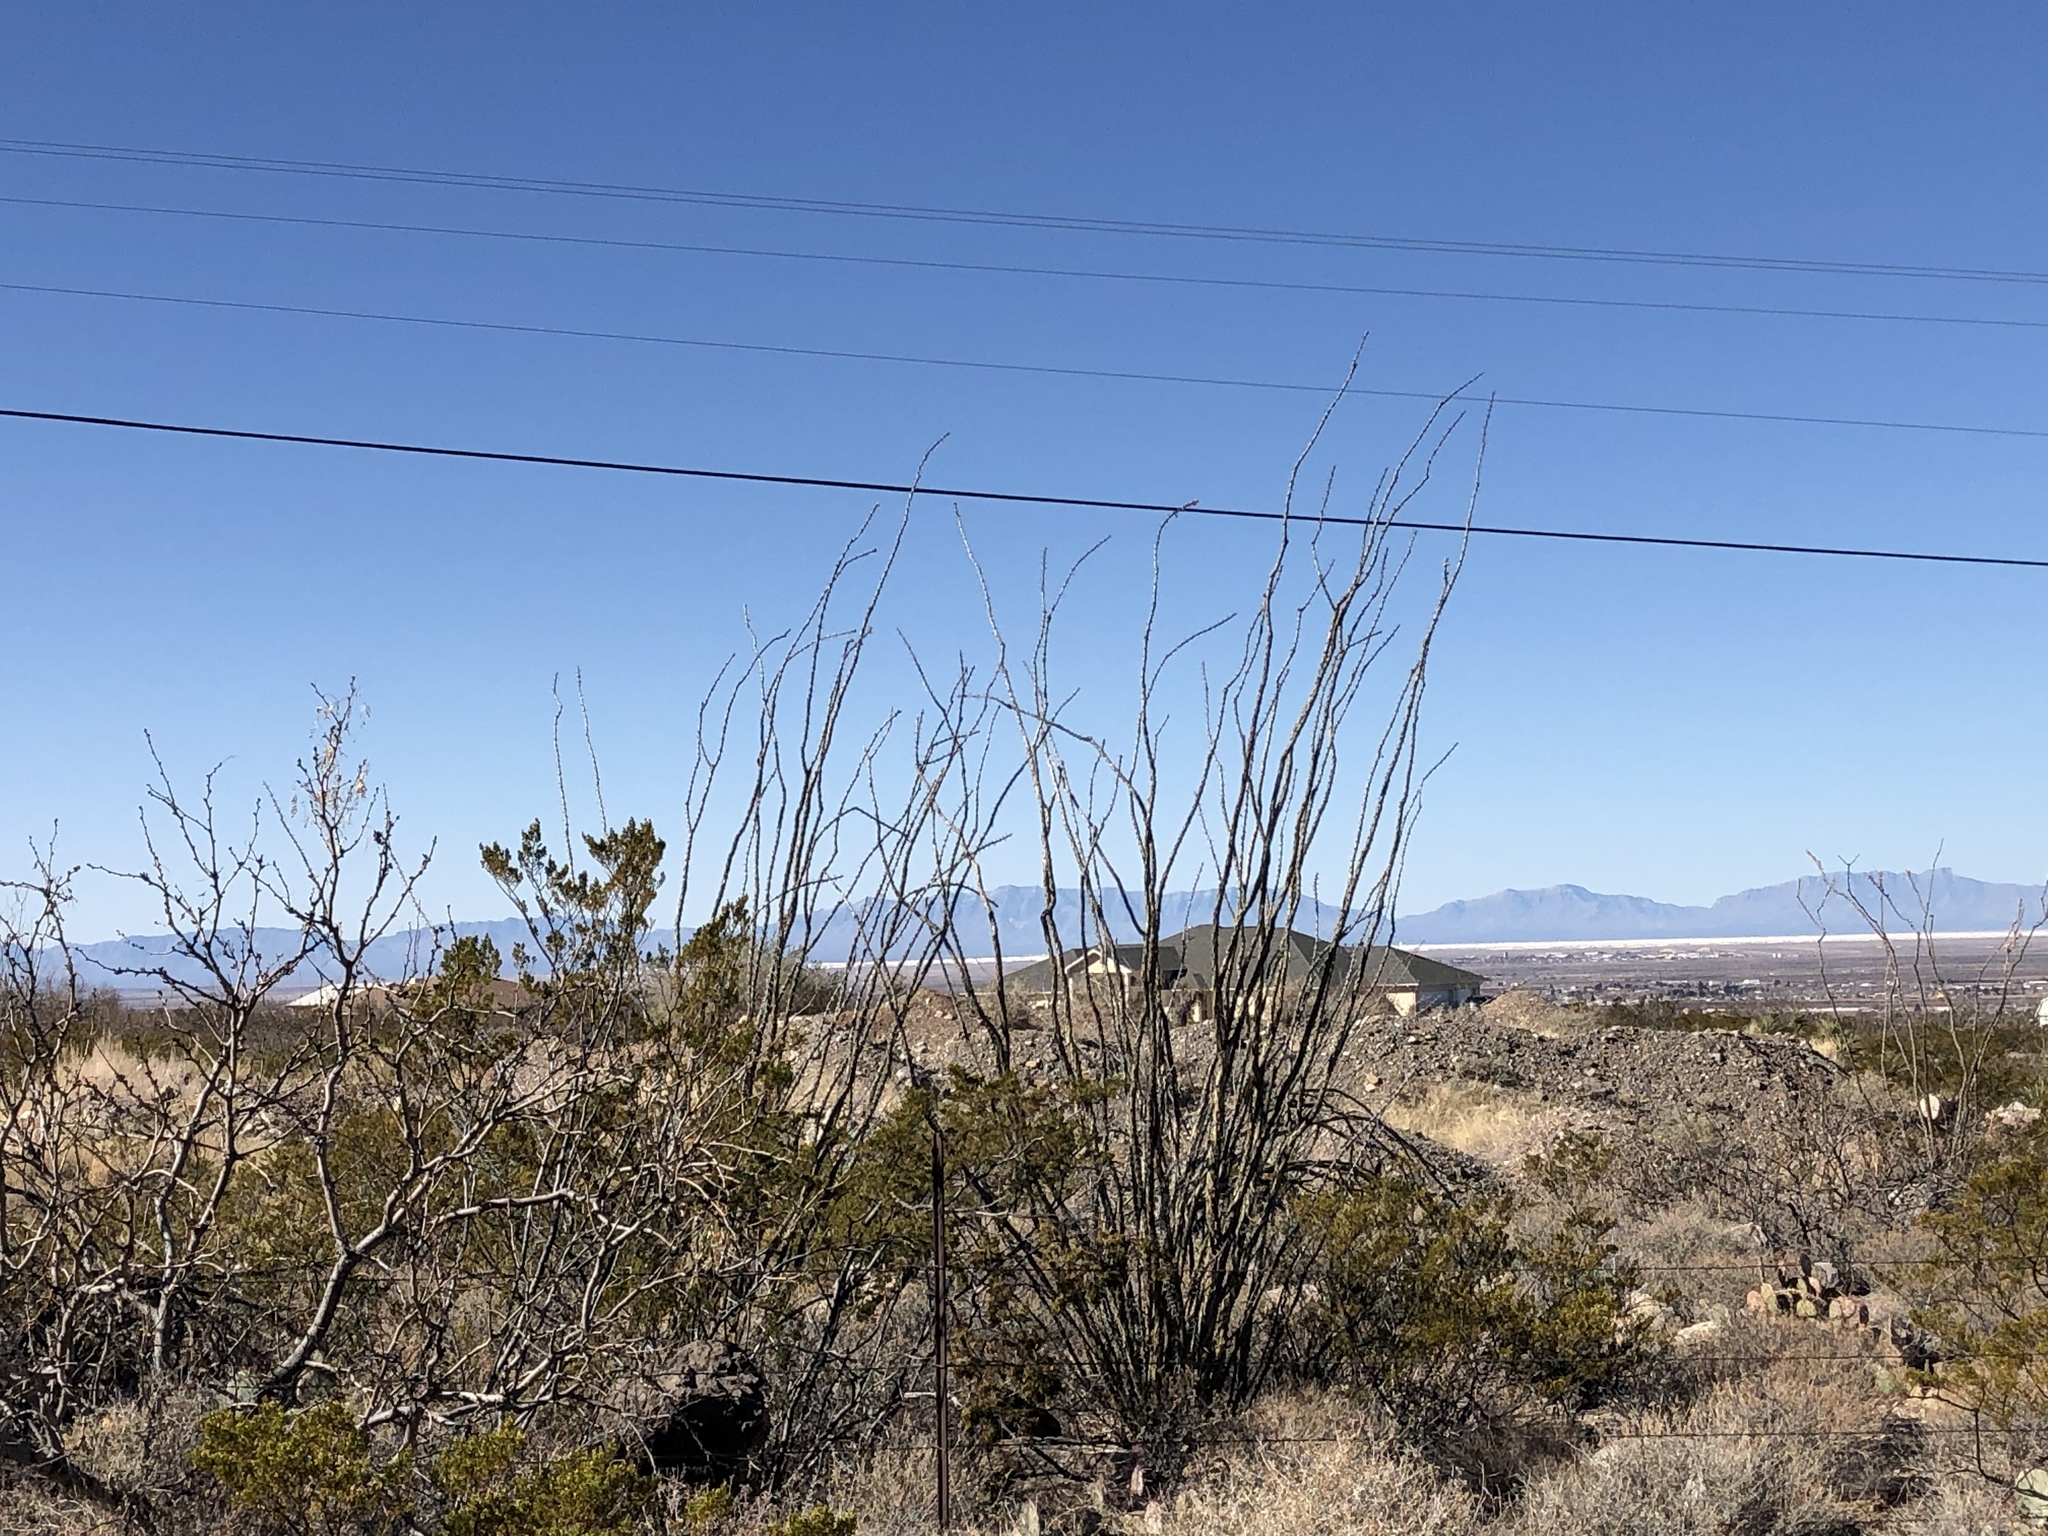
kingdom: Plantae
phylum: Tracheophyta
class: Magnoliopsida
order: Ericales
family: Fouquieriaceae
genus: Fouquieria
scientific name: Fouquieria splendens
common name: Vine-cactus
